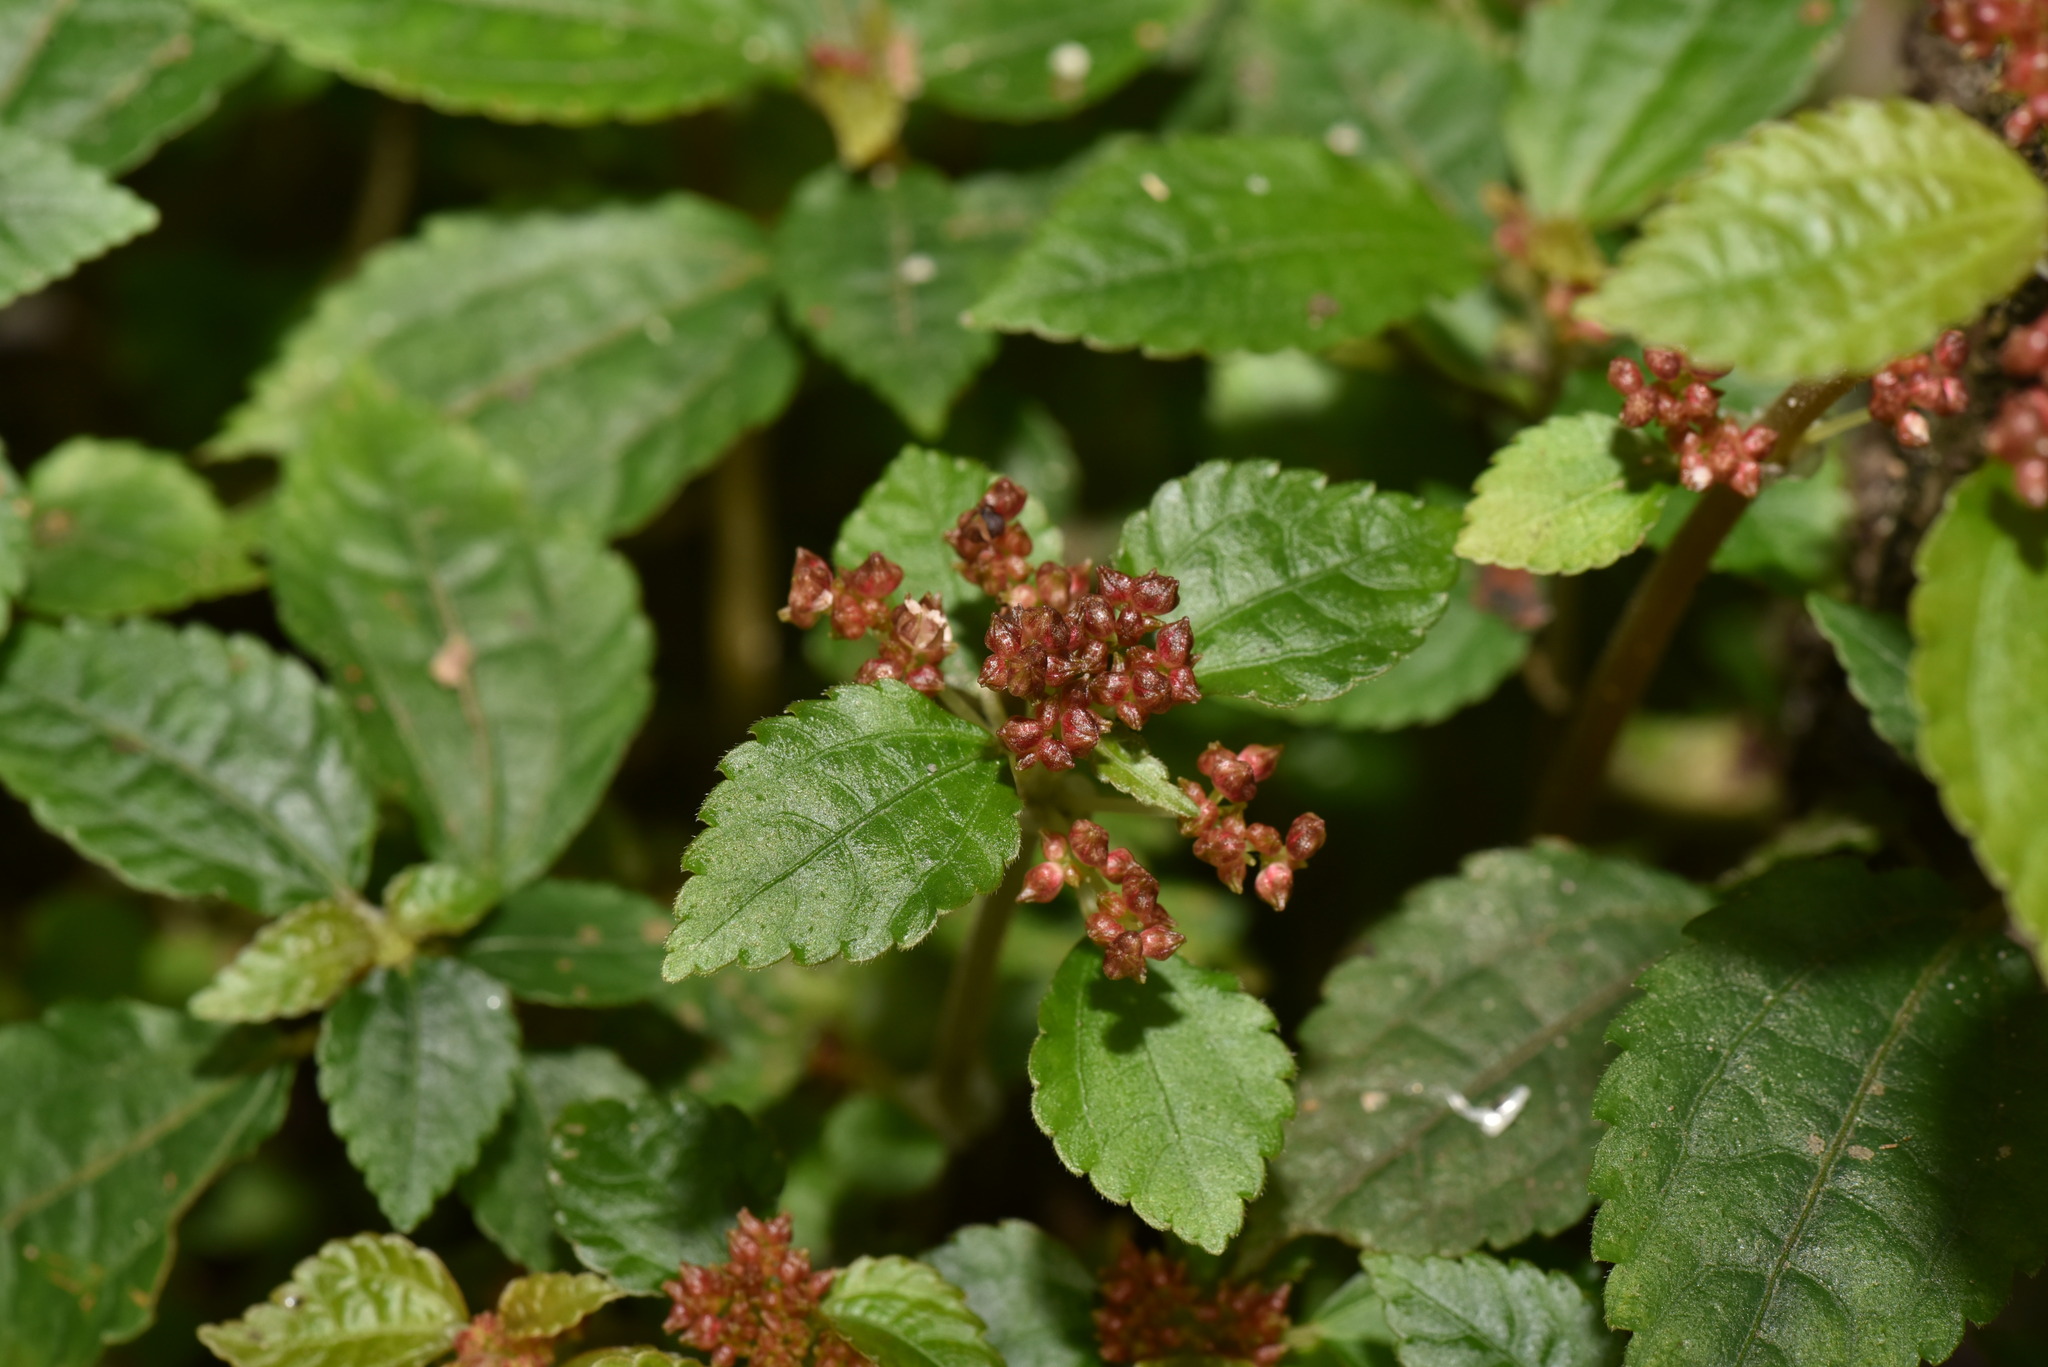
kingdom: Plantae
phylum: Tracheophyta
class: Magnoliopsida
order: Rosales
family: Urticaceae
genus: Pilea
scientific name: Pilea aquarum
